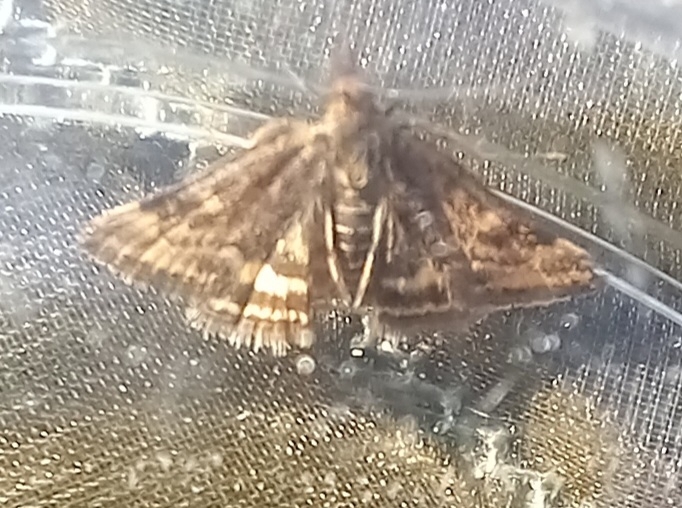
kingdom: Animalia
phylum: Arthropoda
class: Insecta
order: Lepidoptera
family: Crambidae
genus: Pyrausta
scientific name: Pyrausta despicata
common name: Straw-barred pearl
